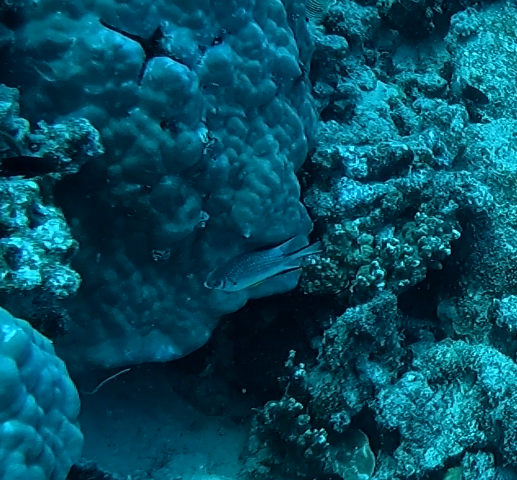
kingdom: Animalia
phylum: Chordata
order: Perciformes
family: Pomacentridae
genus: Amblyglyphidodon
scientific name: Amblyglyphidodon leucogaster
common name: White-belly damsel
